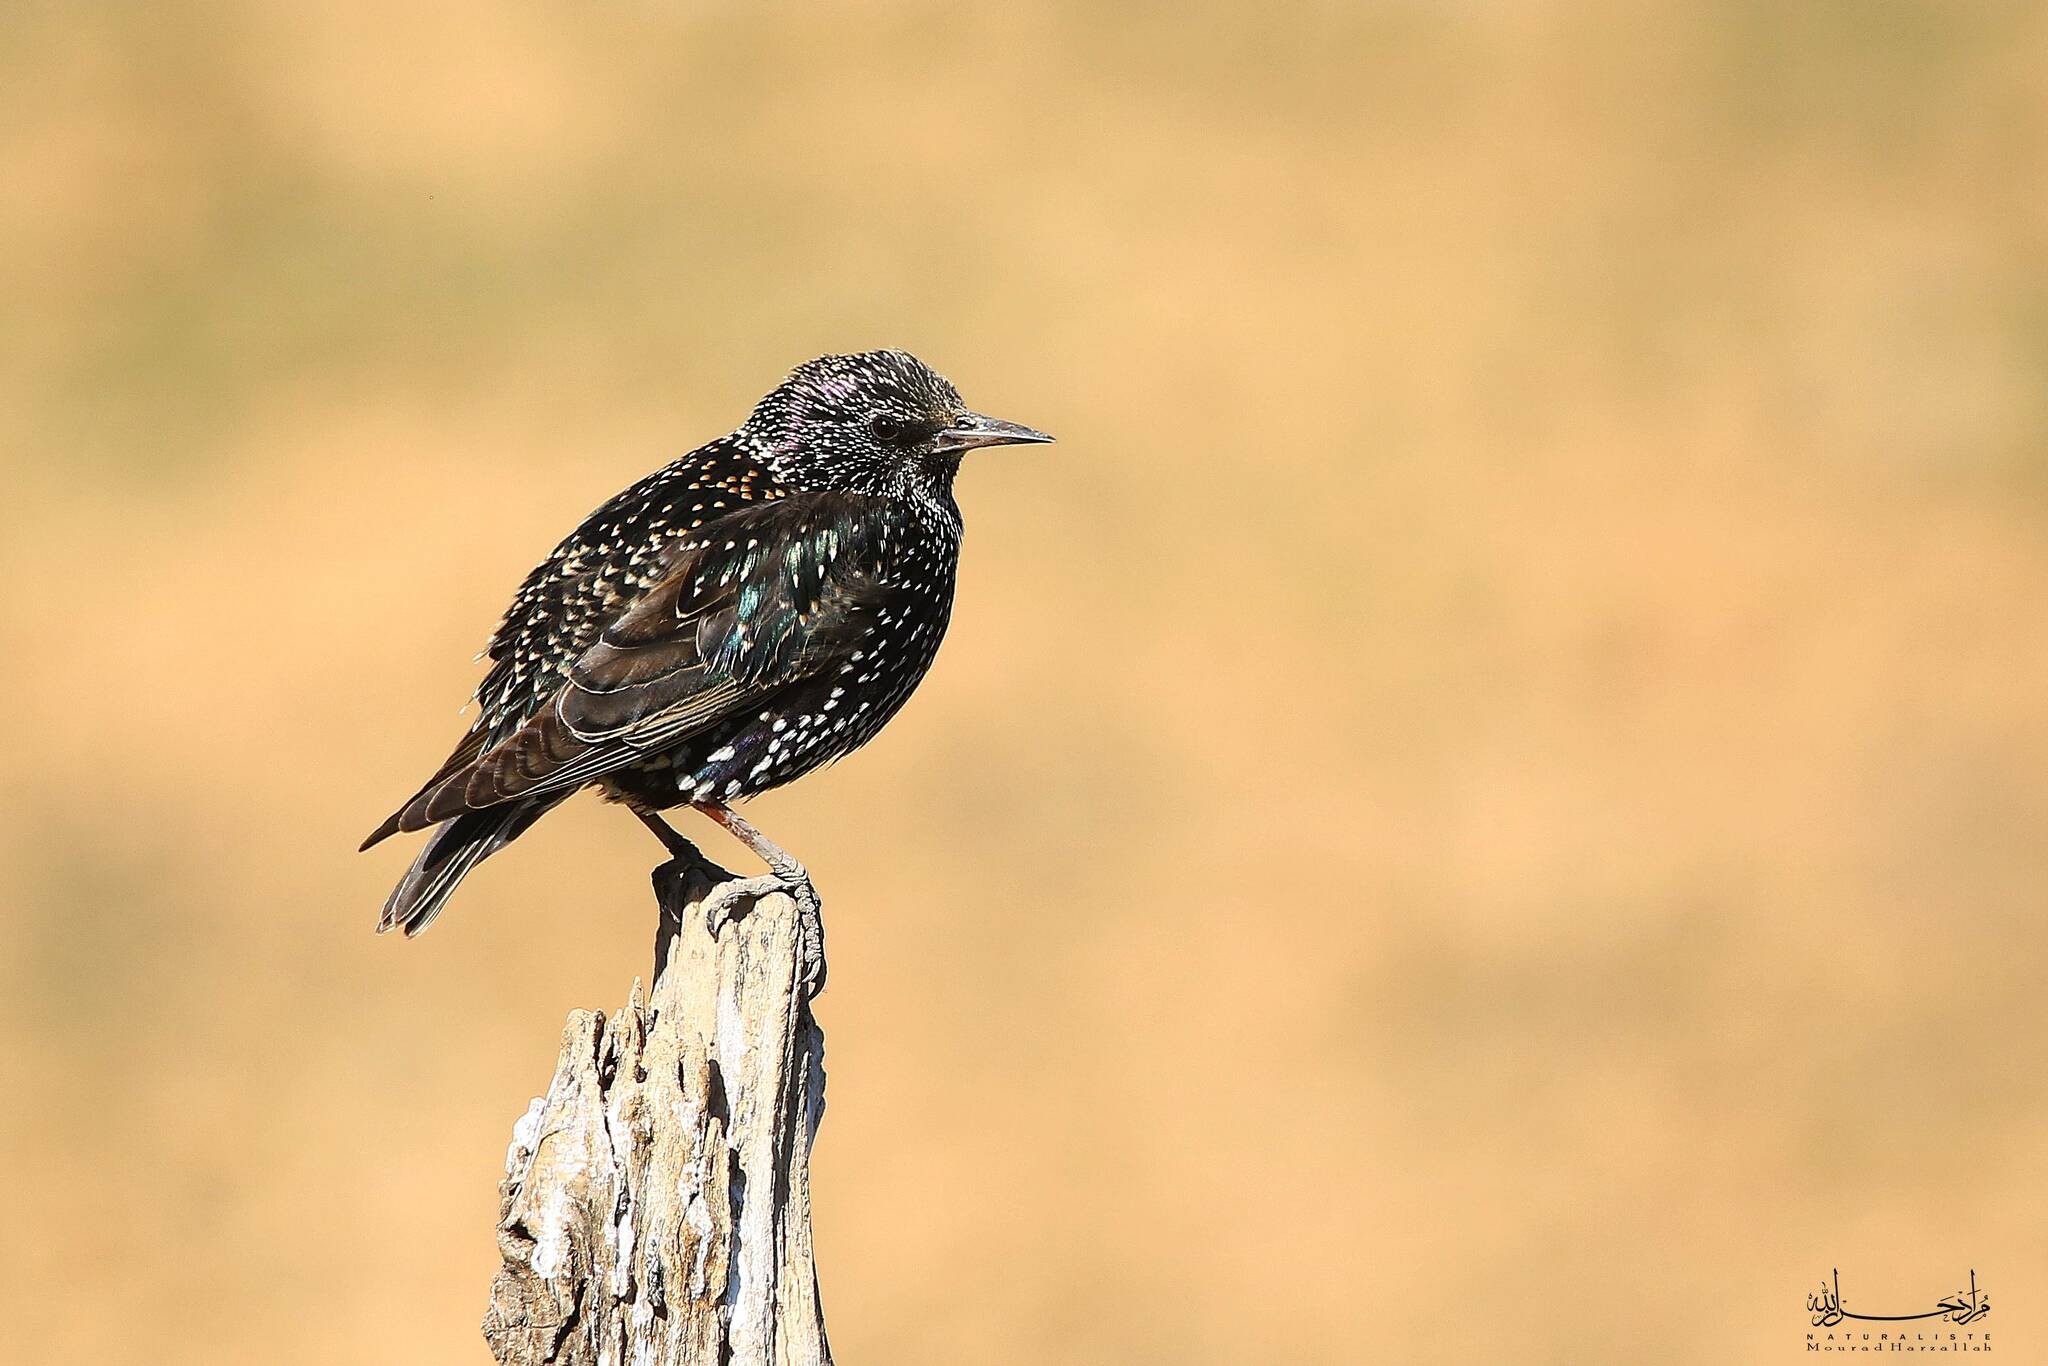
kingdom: Animalia
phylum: Chordata
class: Aves
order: Passeriformes
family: Sturnidae
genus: Sturnus
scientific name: Sturnus vulgaris
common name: Common starling
